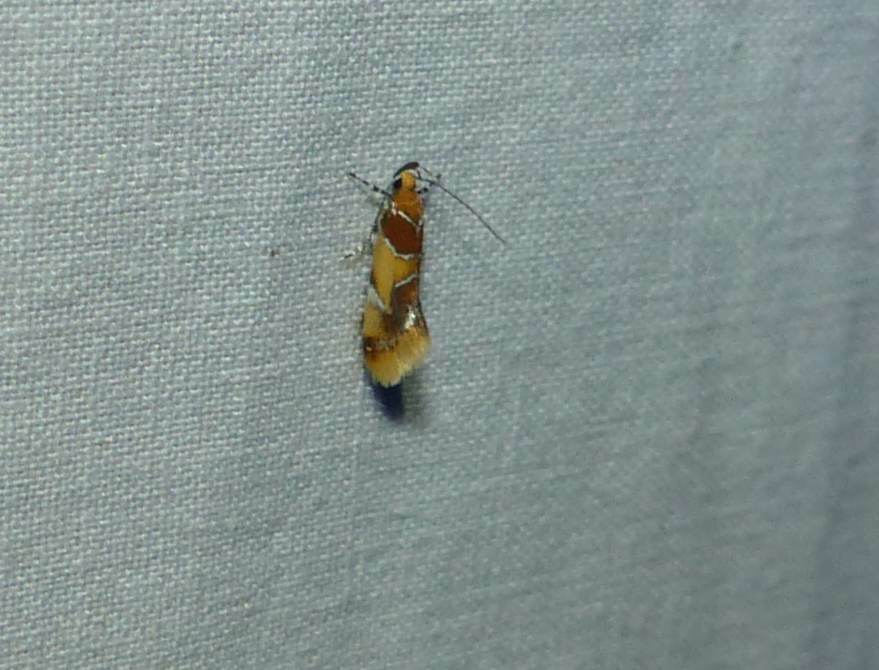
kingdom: Animalia
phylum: Arthropoda
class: Insecta
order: Lepidoptera
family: Oecophoridae
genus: Callima
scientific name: Callima argenticinctella
